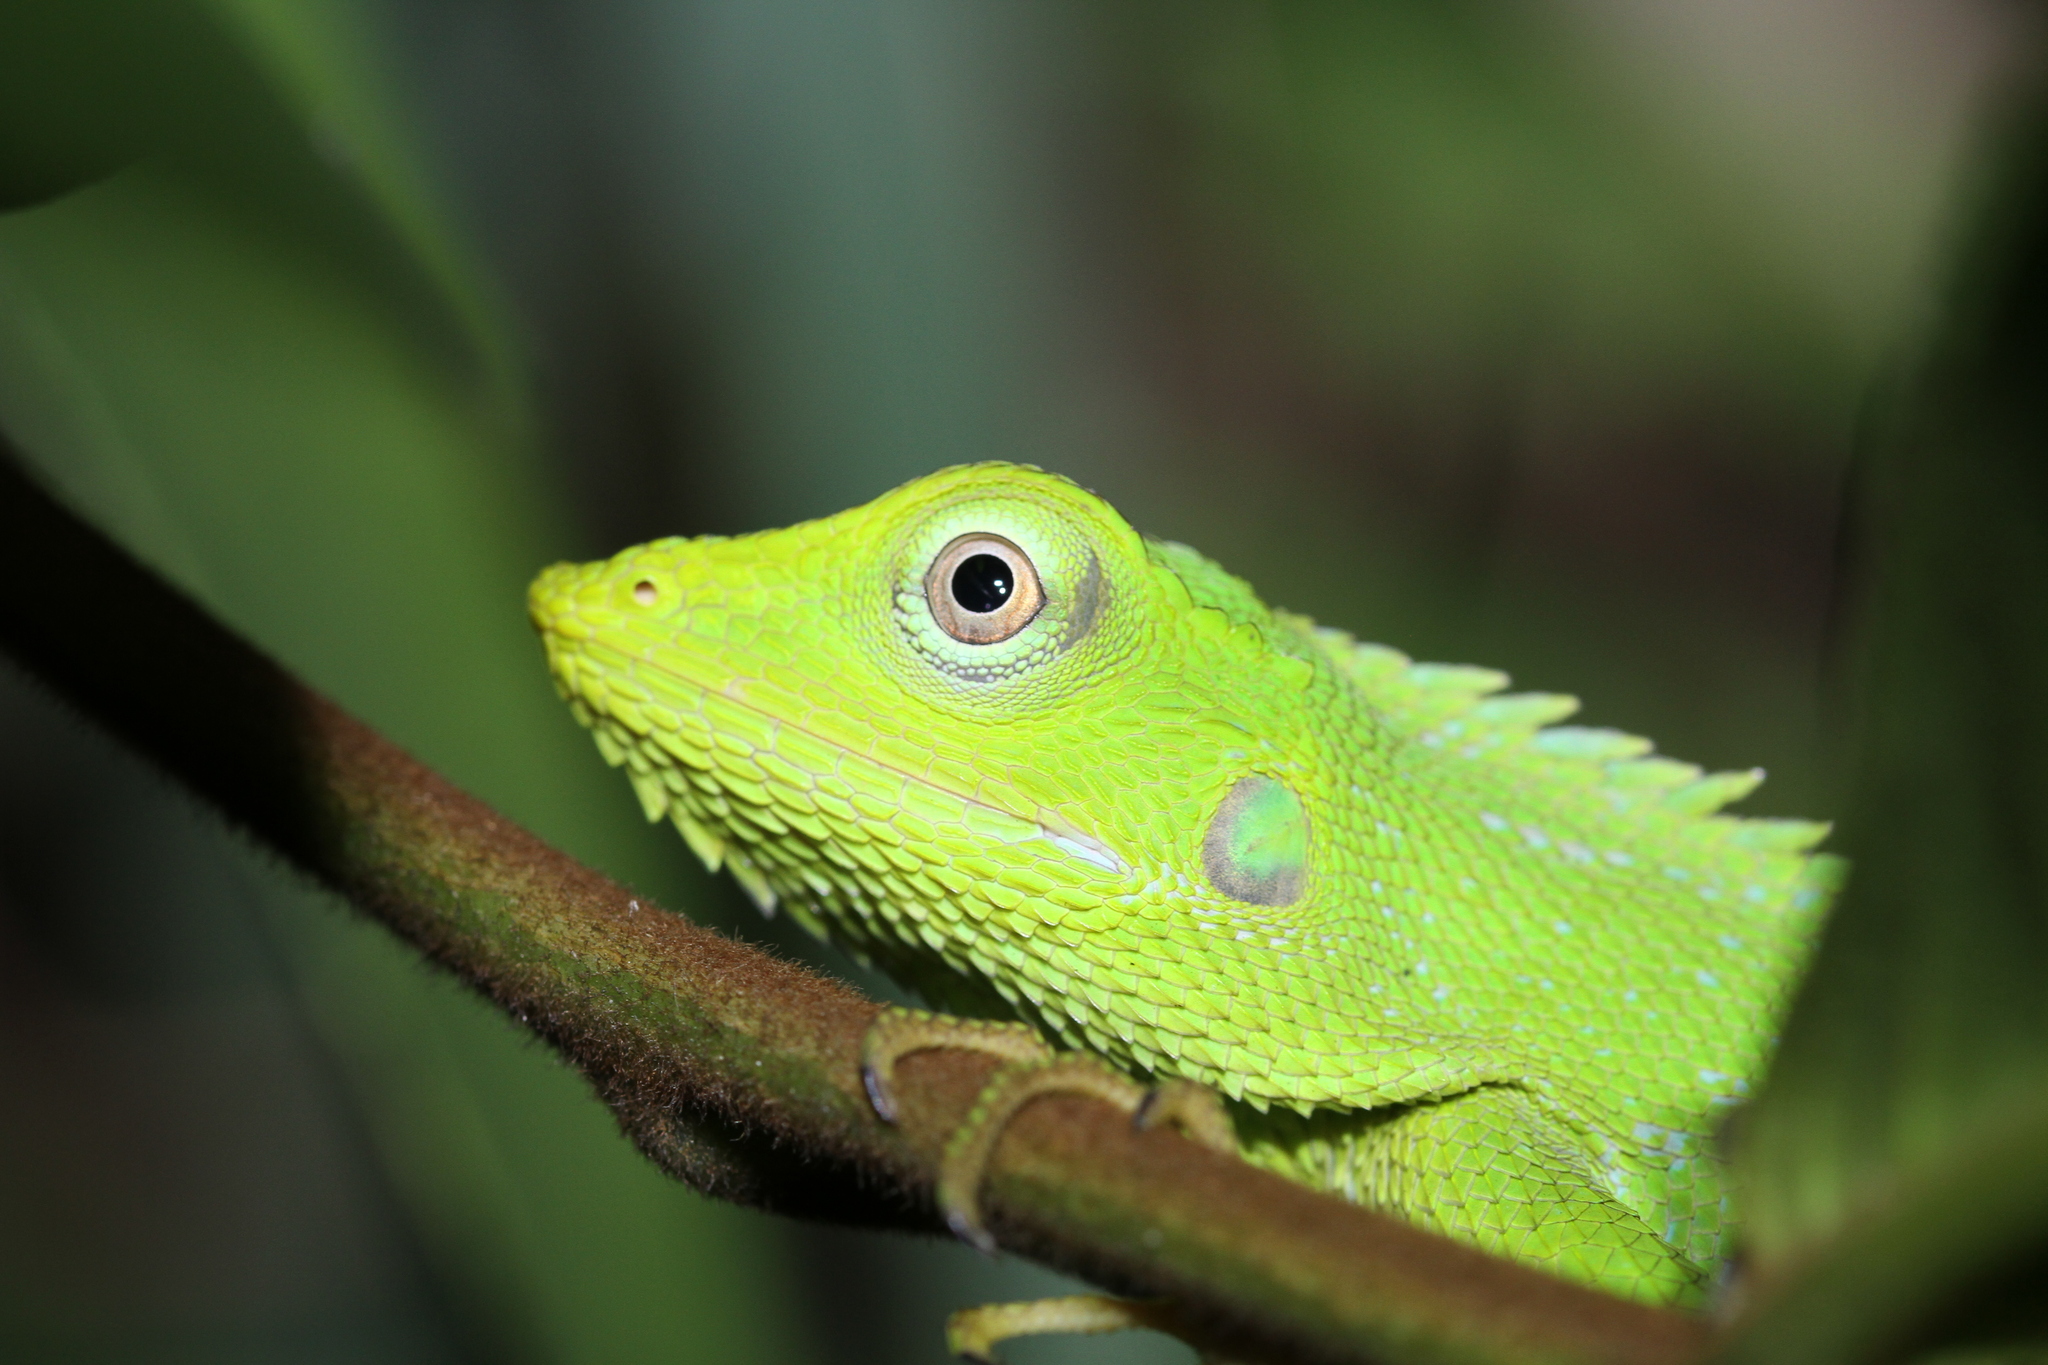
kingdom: Animalia
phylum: Chordata
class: Squamata
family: Agamidae
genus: Bronchocela
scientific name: Bronchocela jubata
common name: Maned forest lizard
